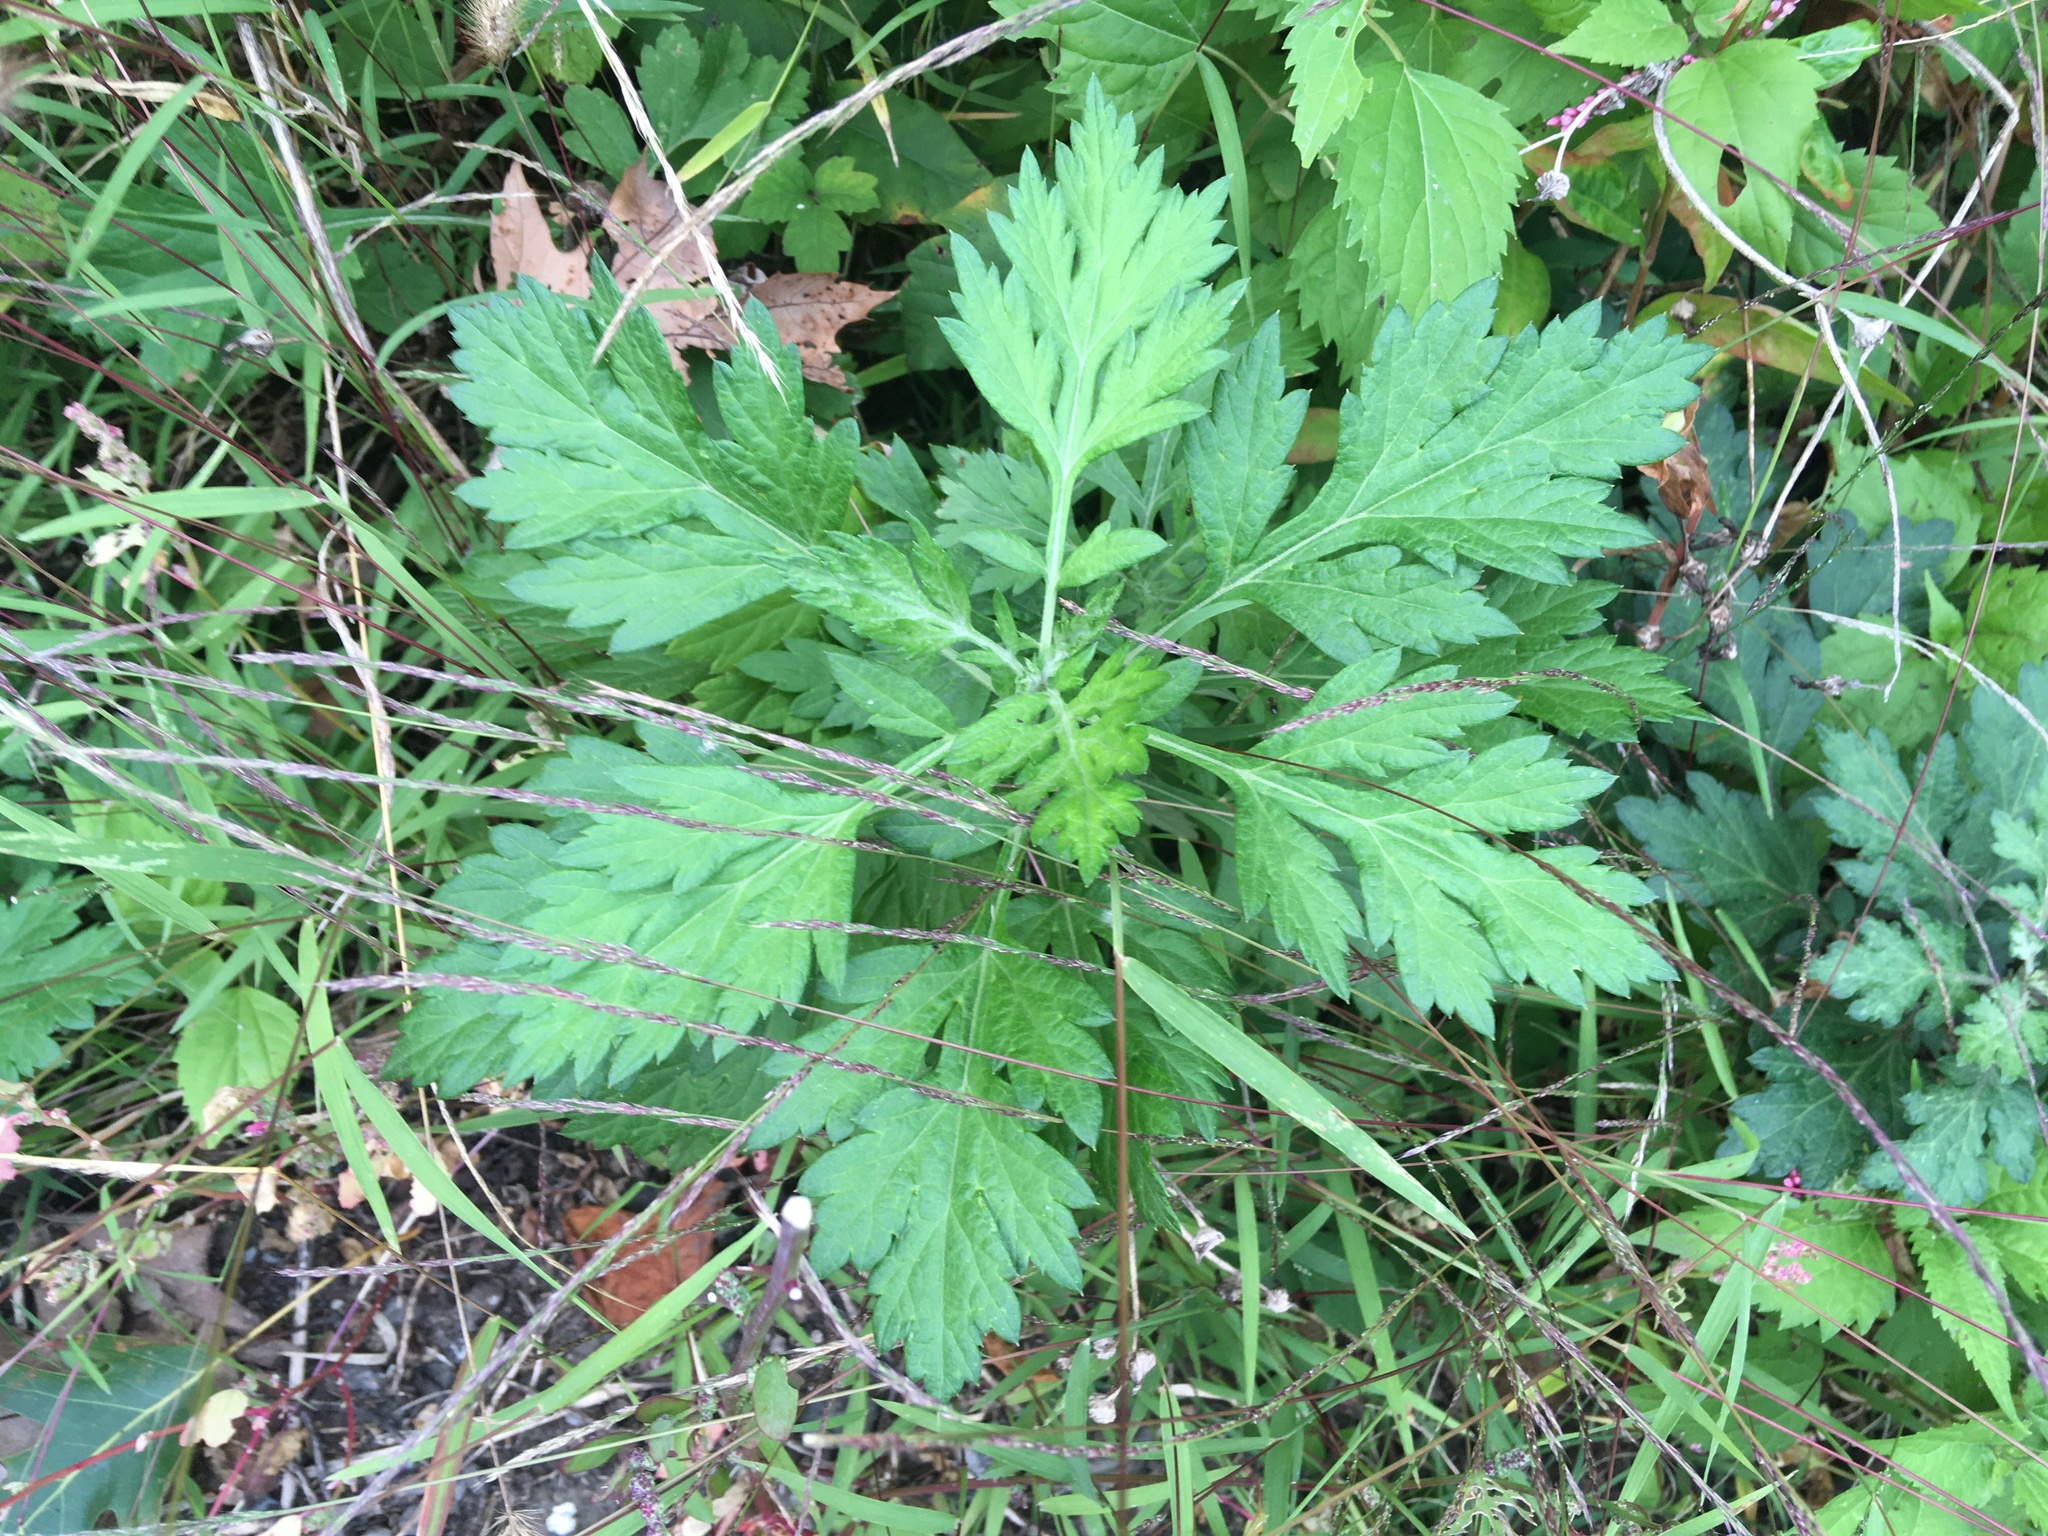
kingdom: Plantae
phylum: Tracheophyta
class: Magnoliopsida
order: Asterales
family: Asteraceae
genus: Artemisia
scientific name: Artemisia vulgaris
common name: Mugwort
